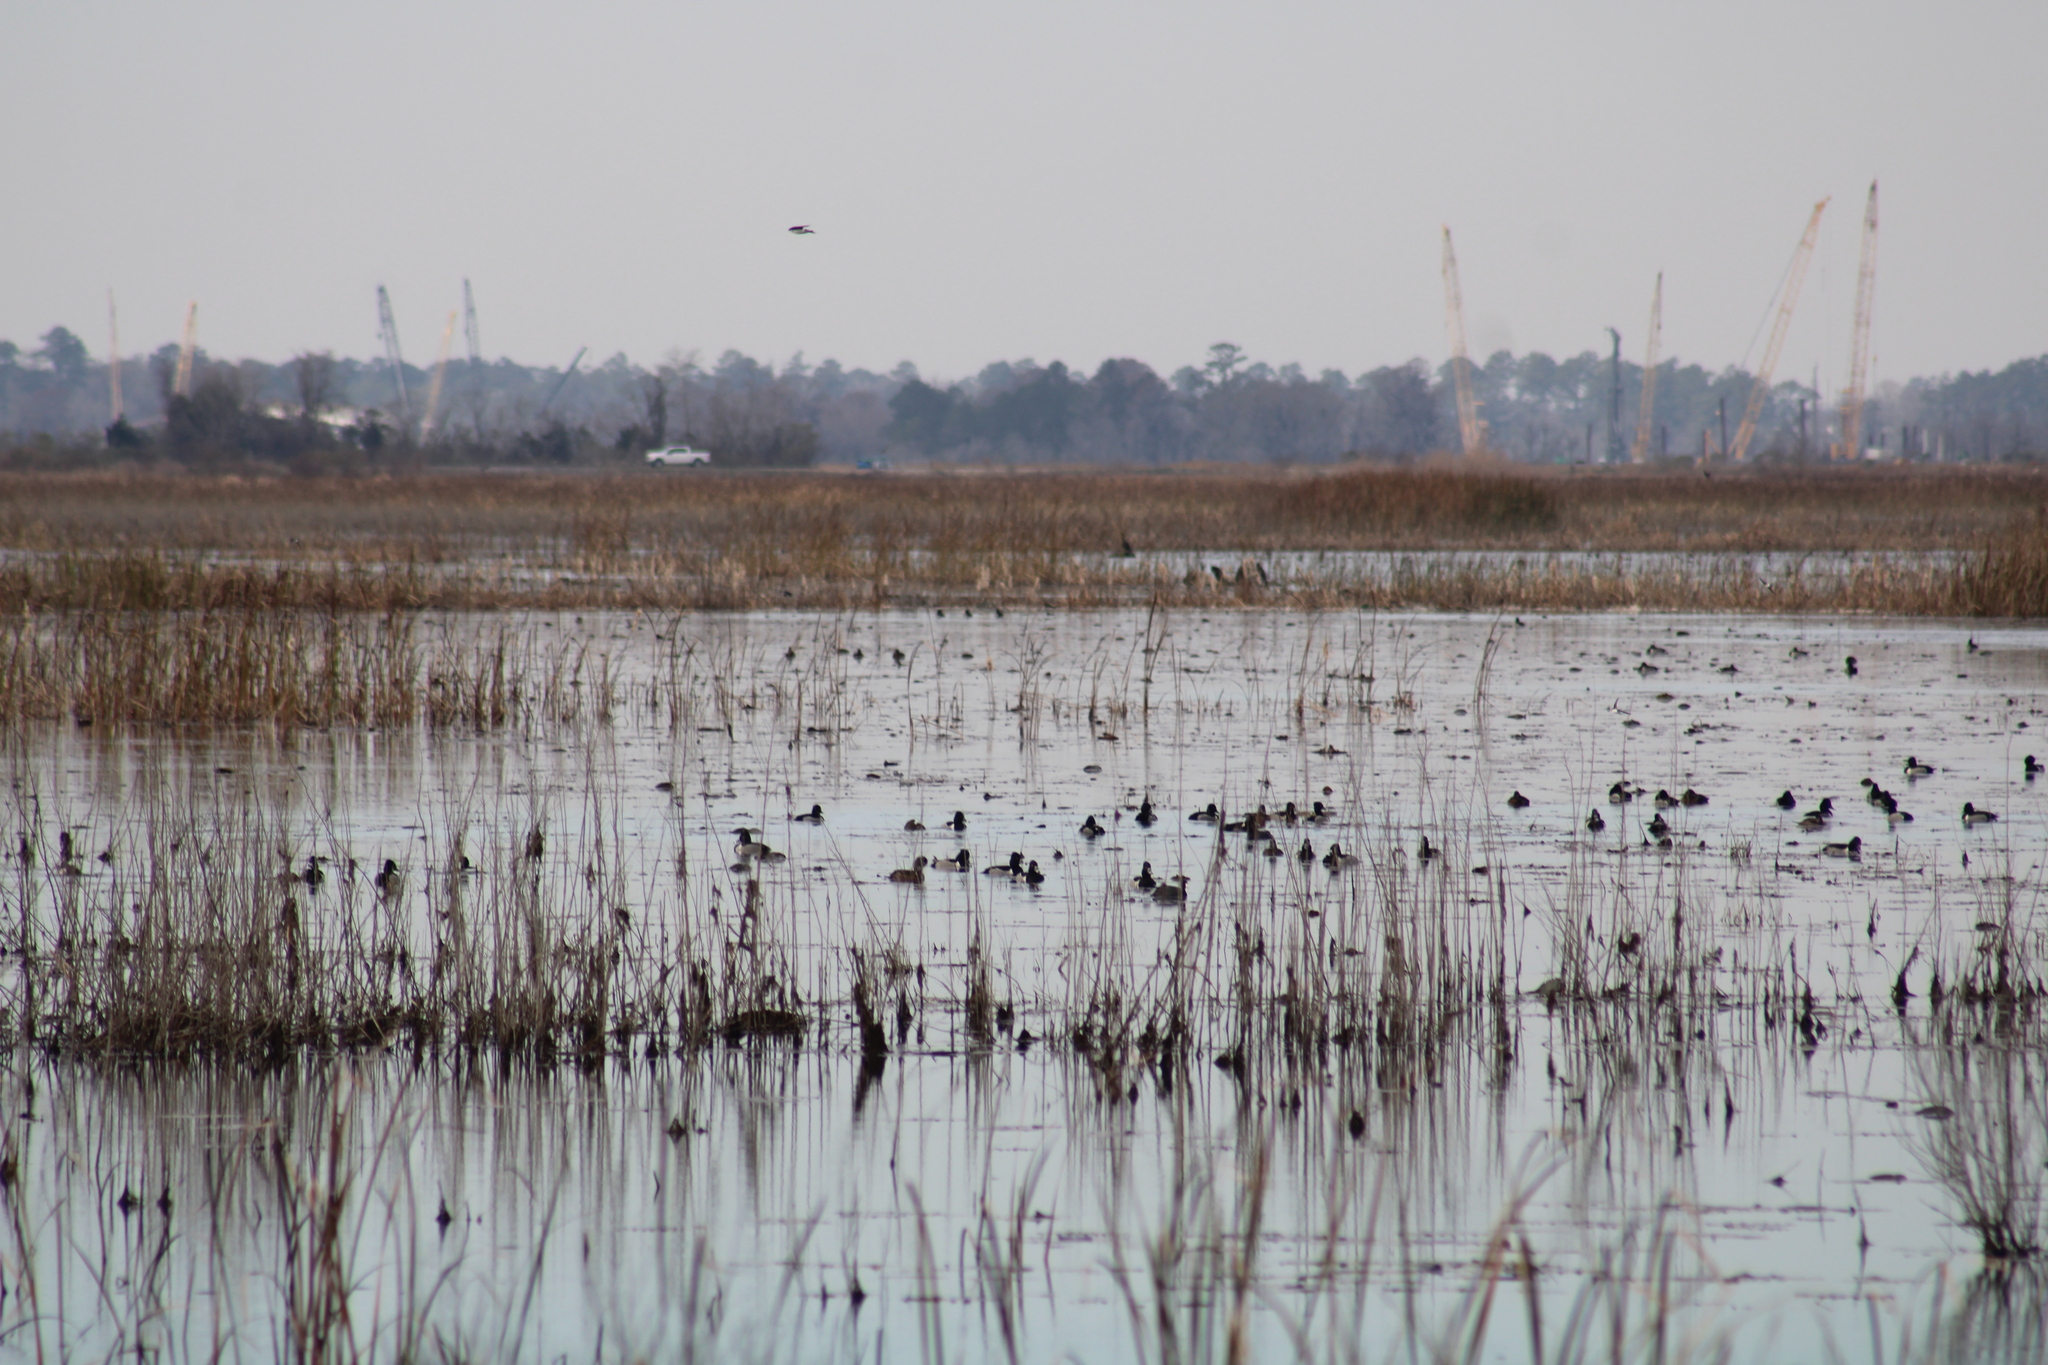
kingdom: Animalia
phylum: Chordata
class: Aves
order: Anseriformes
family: Anatidae
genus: Aythya
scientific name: Aythya collaris
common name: Ring-necked duck
